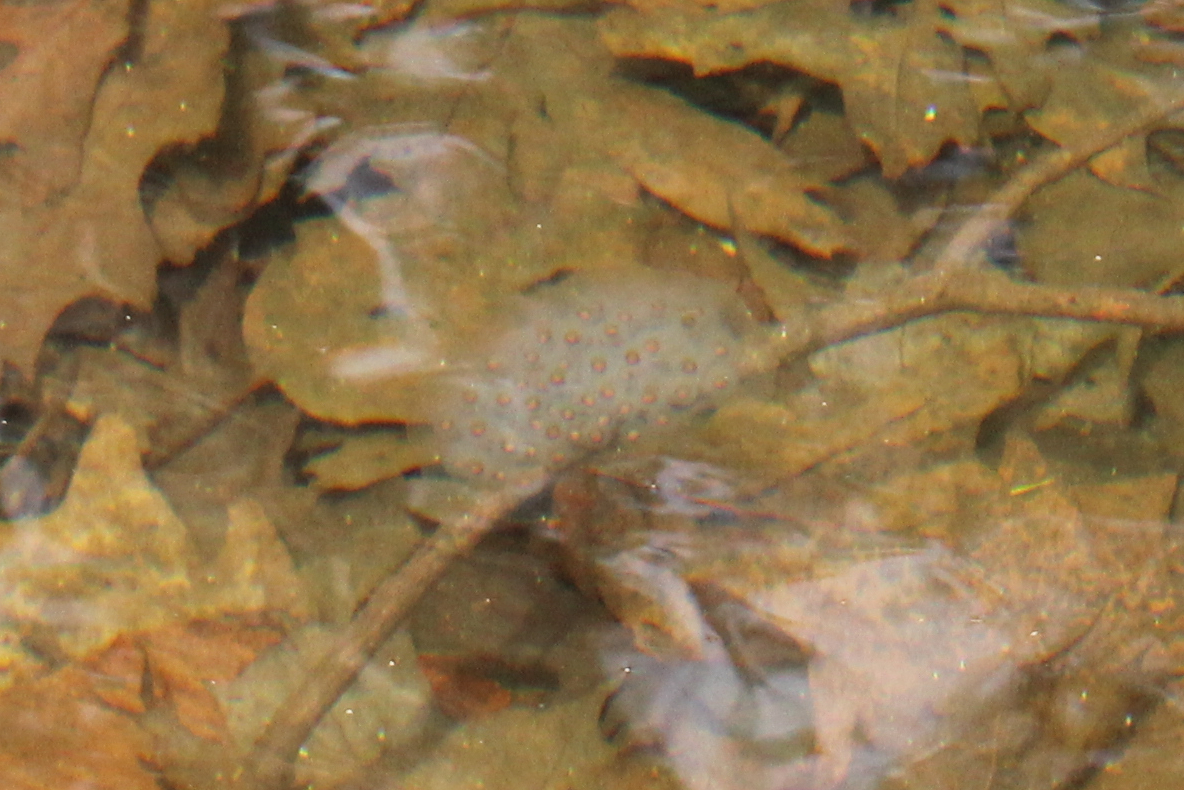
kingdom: Animalia
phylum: Chordata
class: Amphibia
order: Caudata
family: Ambystomatidae
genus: Ambystoma
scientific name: Ambystoma maculatum
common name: Spotted salamander
